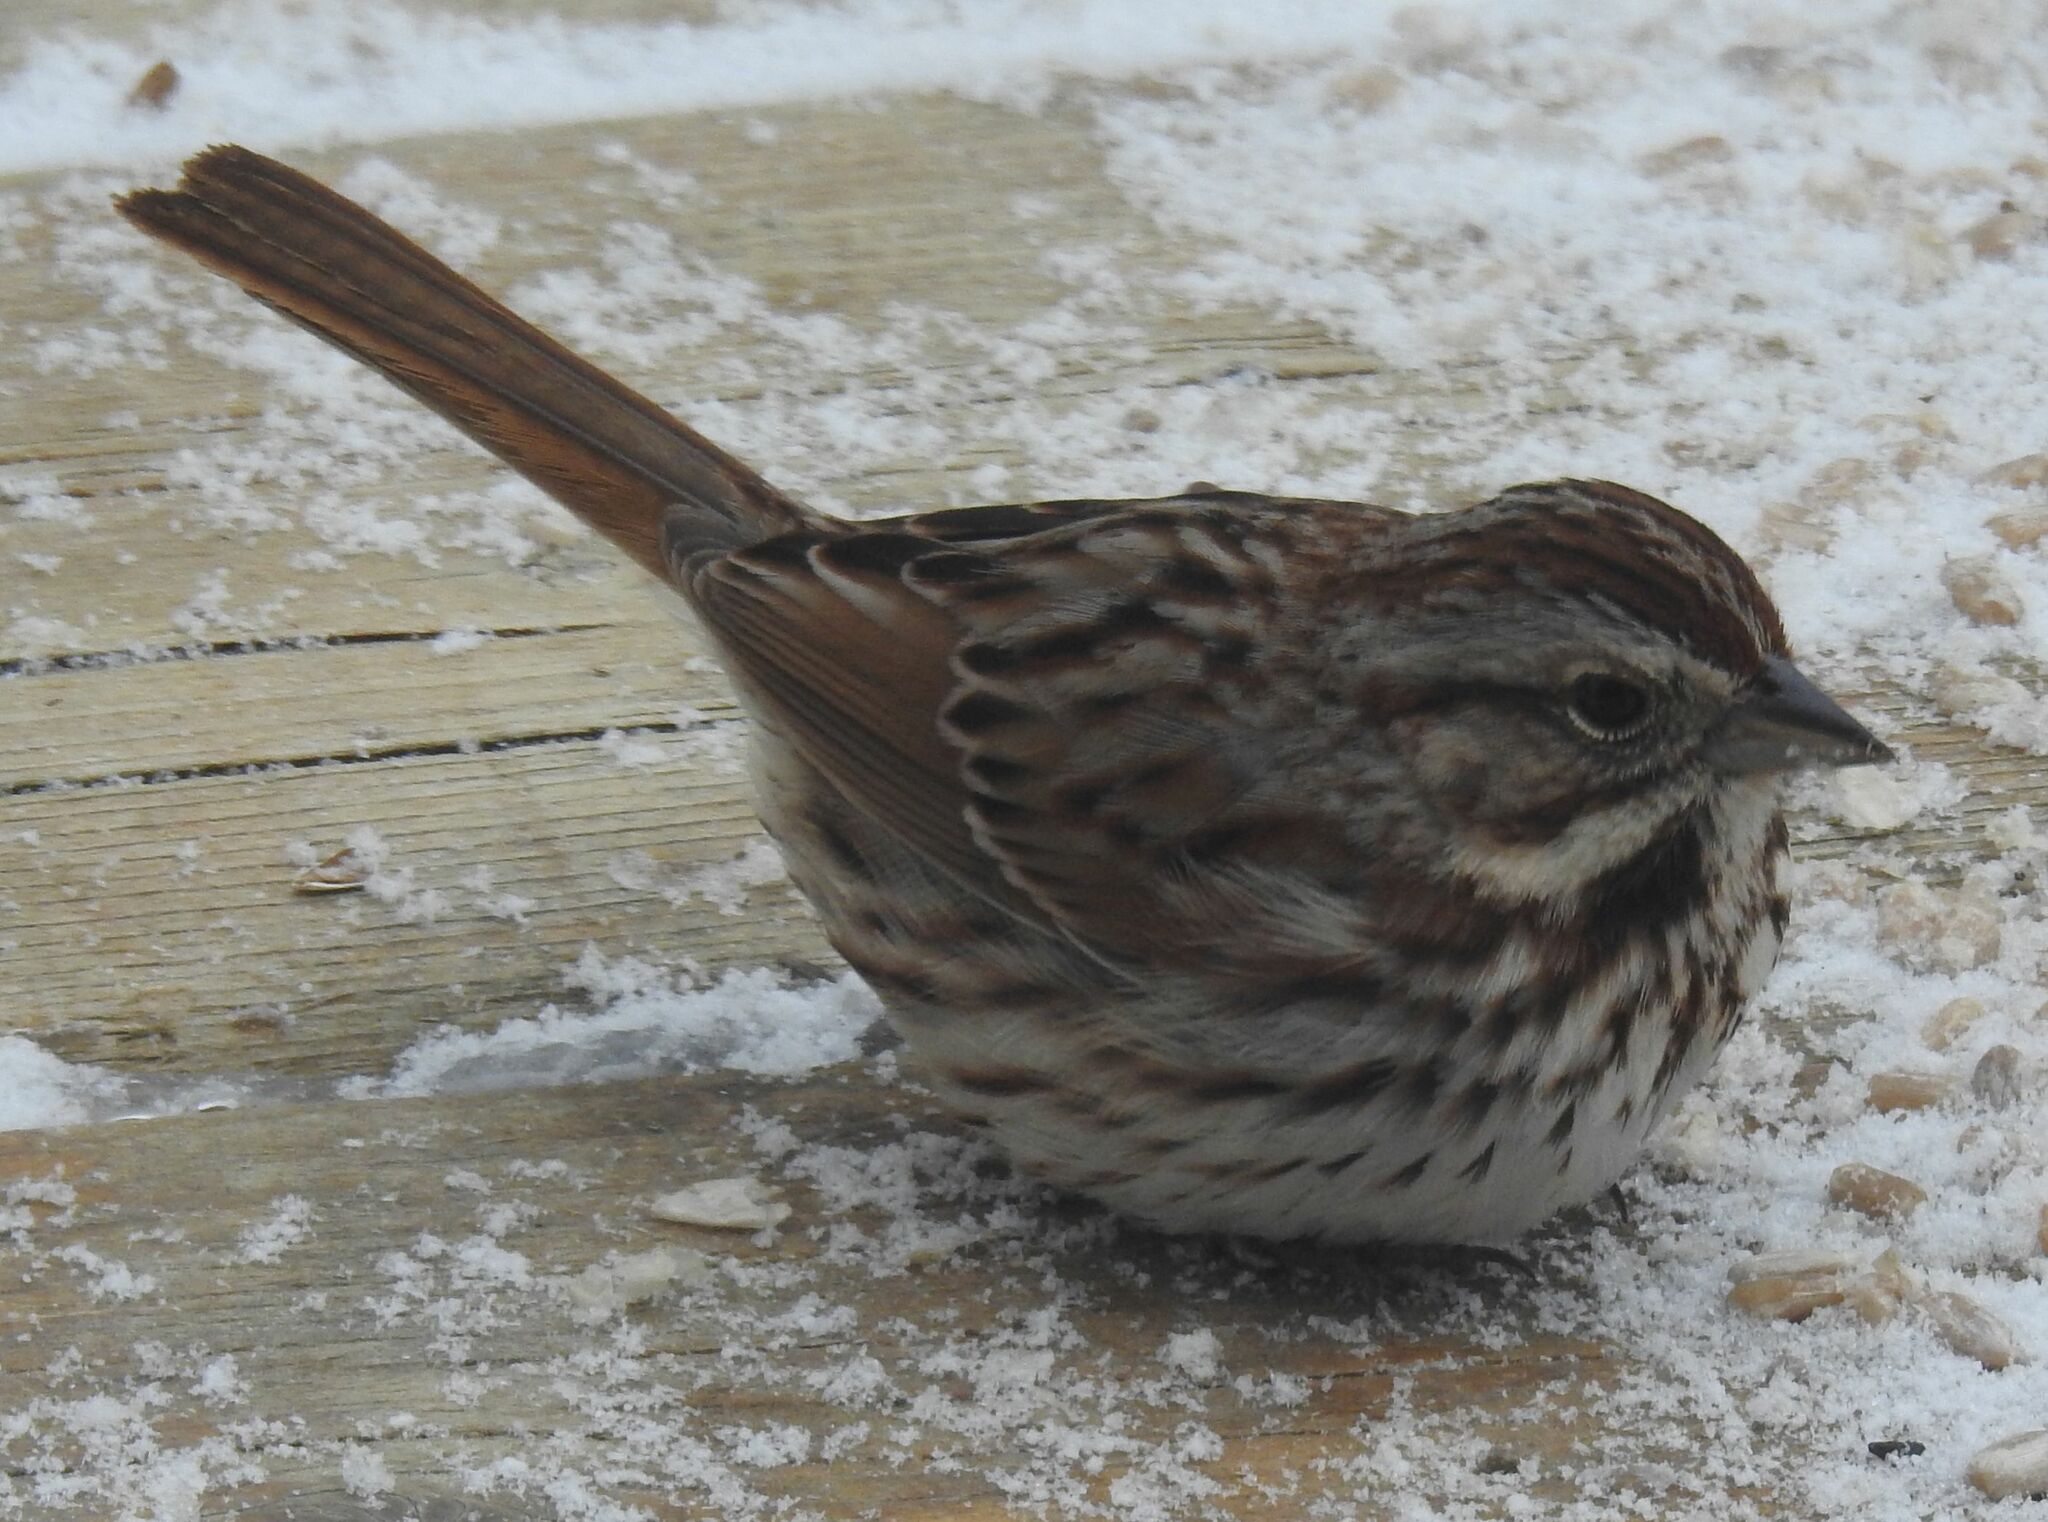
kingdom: Animalia
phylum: Chordata
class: Aves
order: Passeriformes
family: Passerellidae
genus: Melospiza
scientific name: Melospiza melodia
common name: Song sparrow
